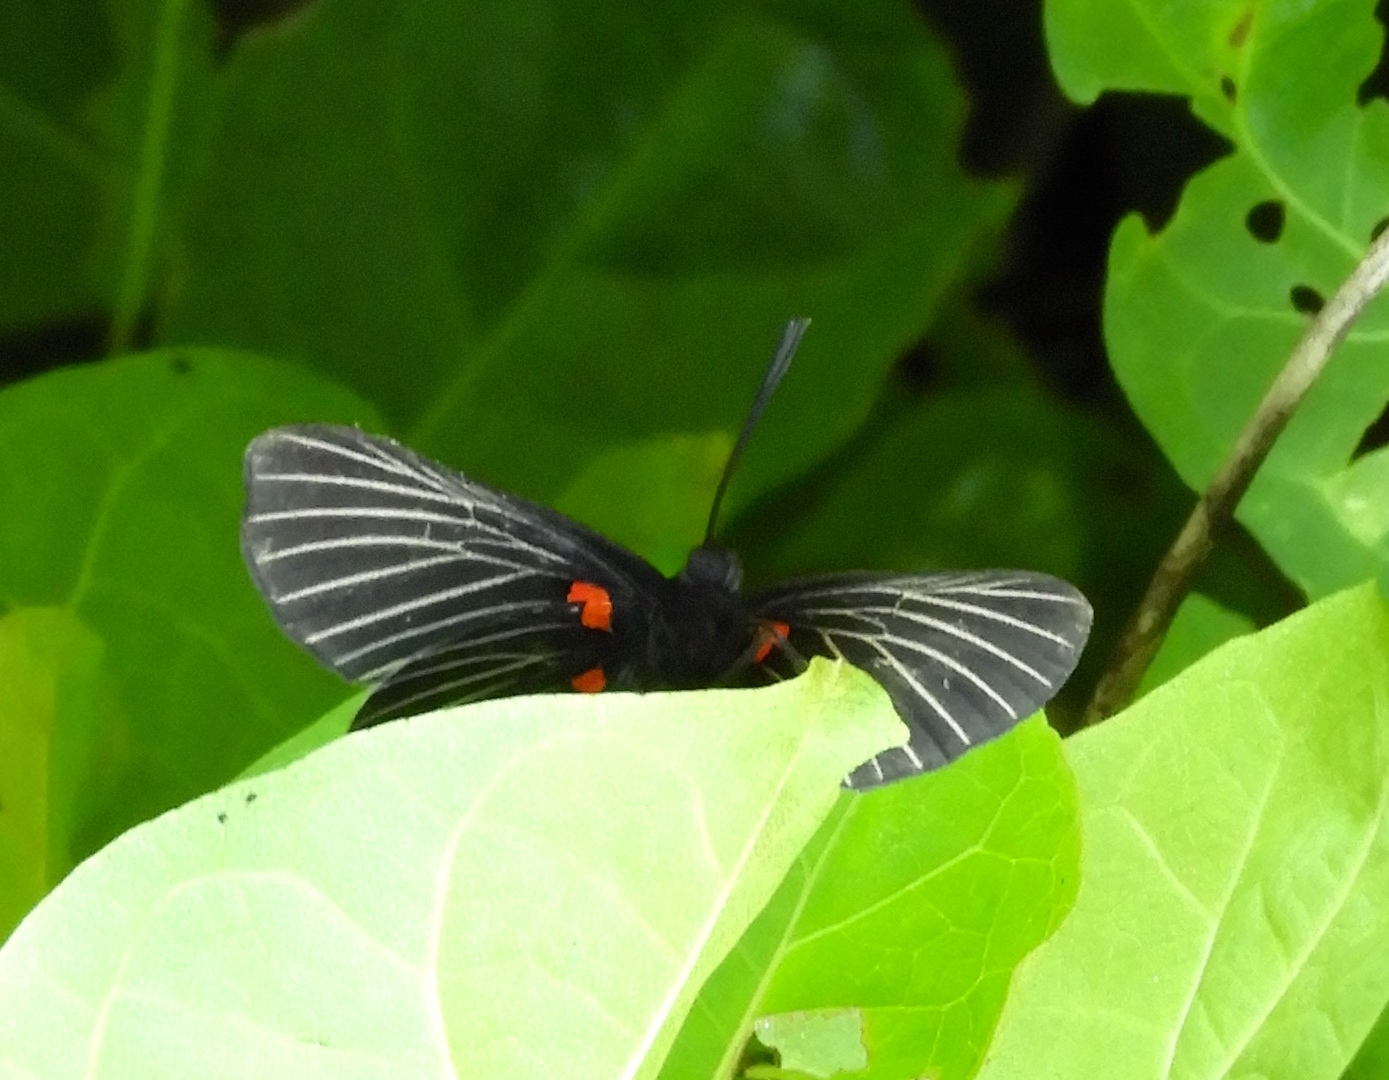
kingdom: Animalia
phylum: Arthropoda
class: Insecta
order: Lepidoptera
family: Lycaenidae
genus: Melanis
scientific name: Melanis
